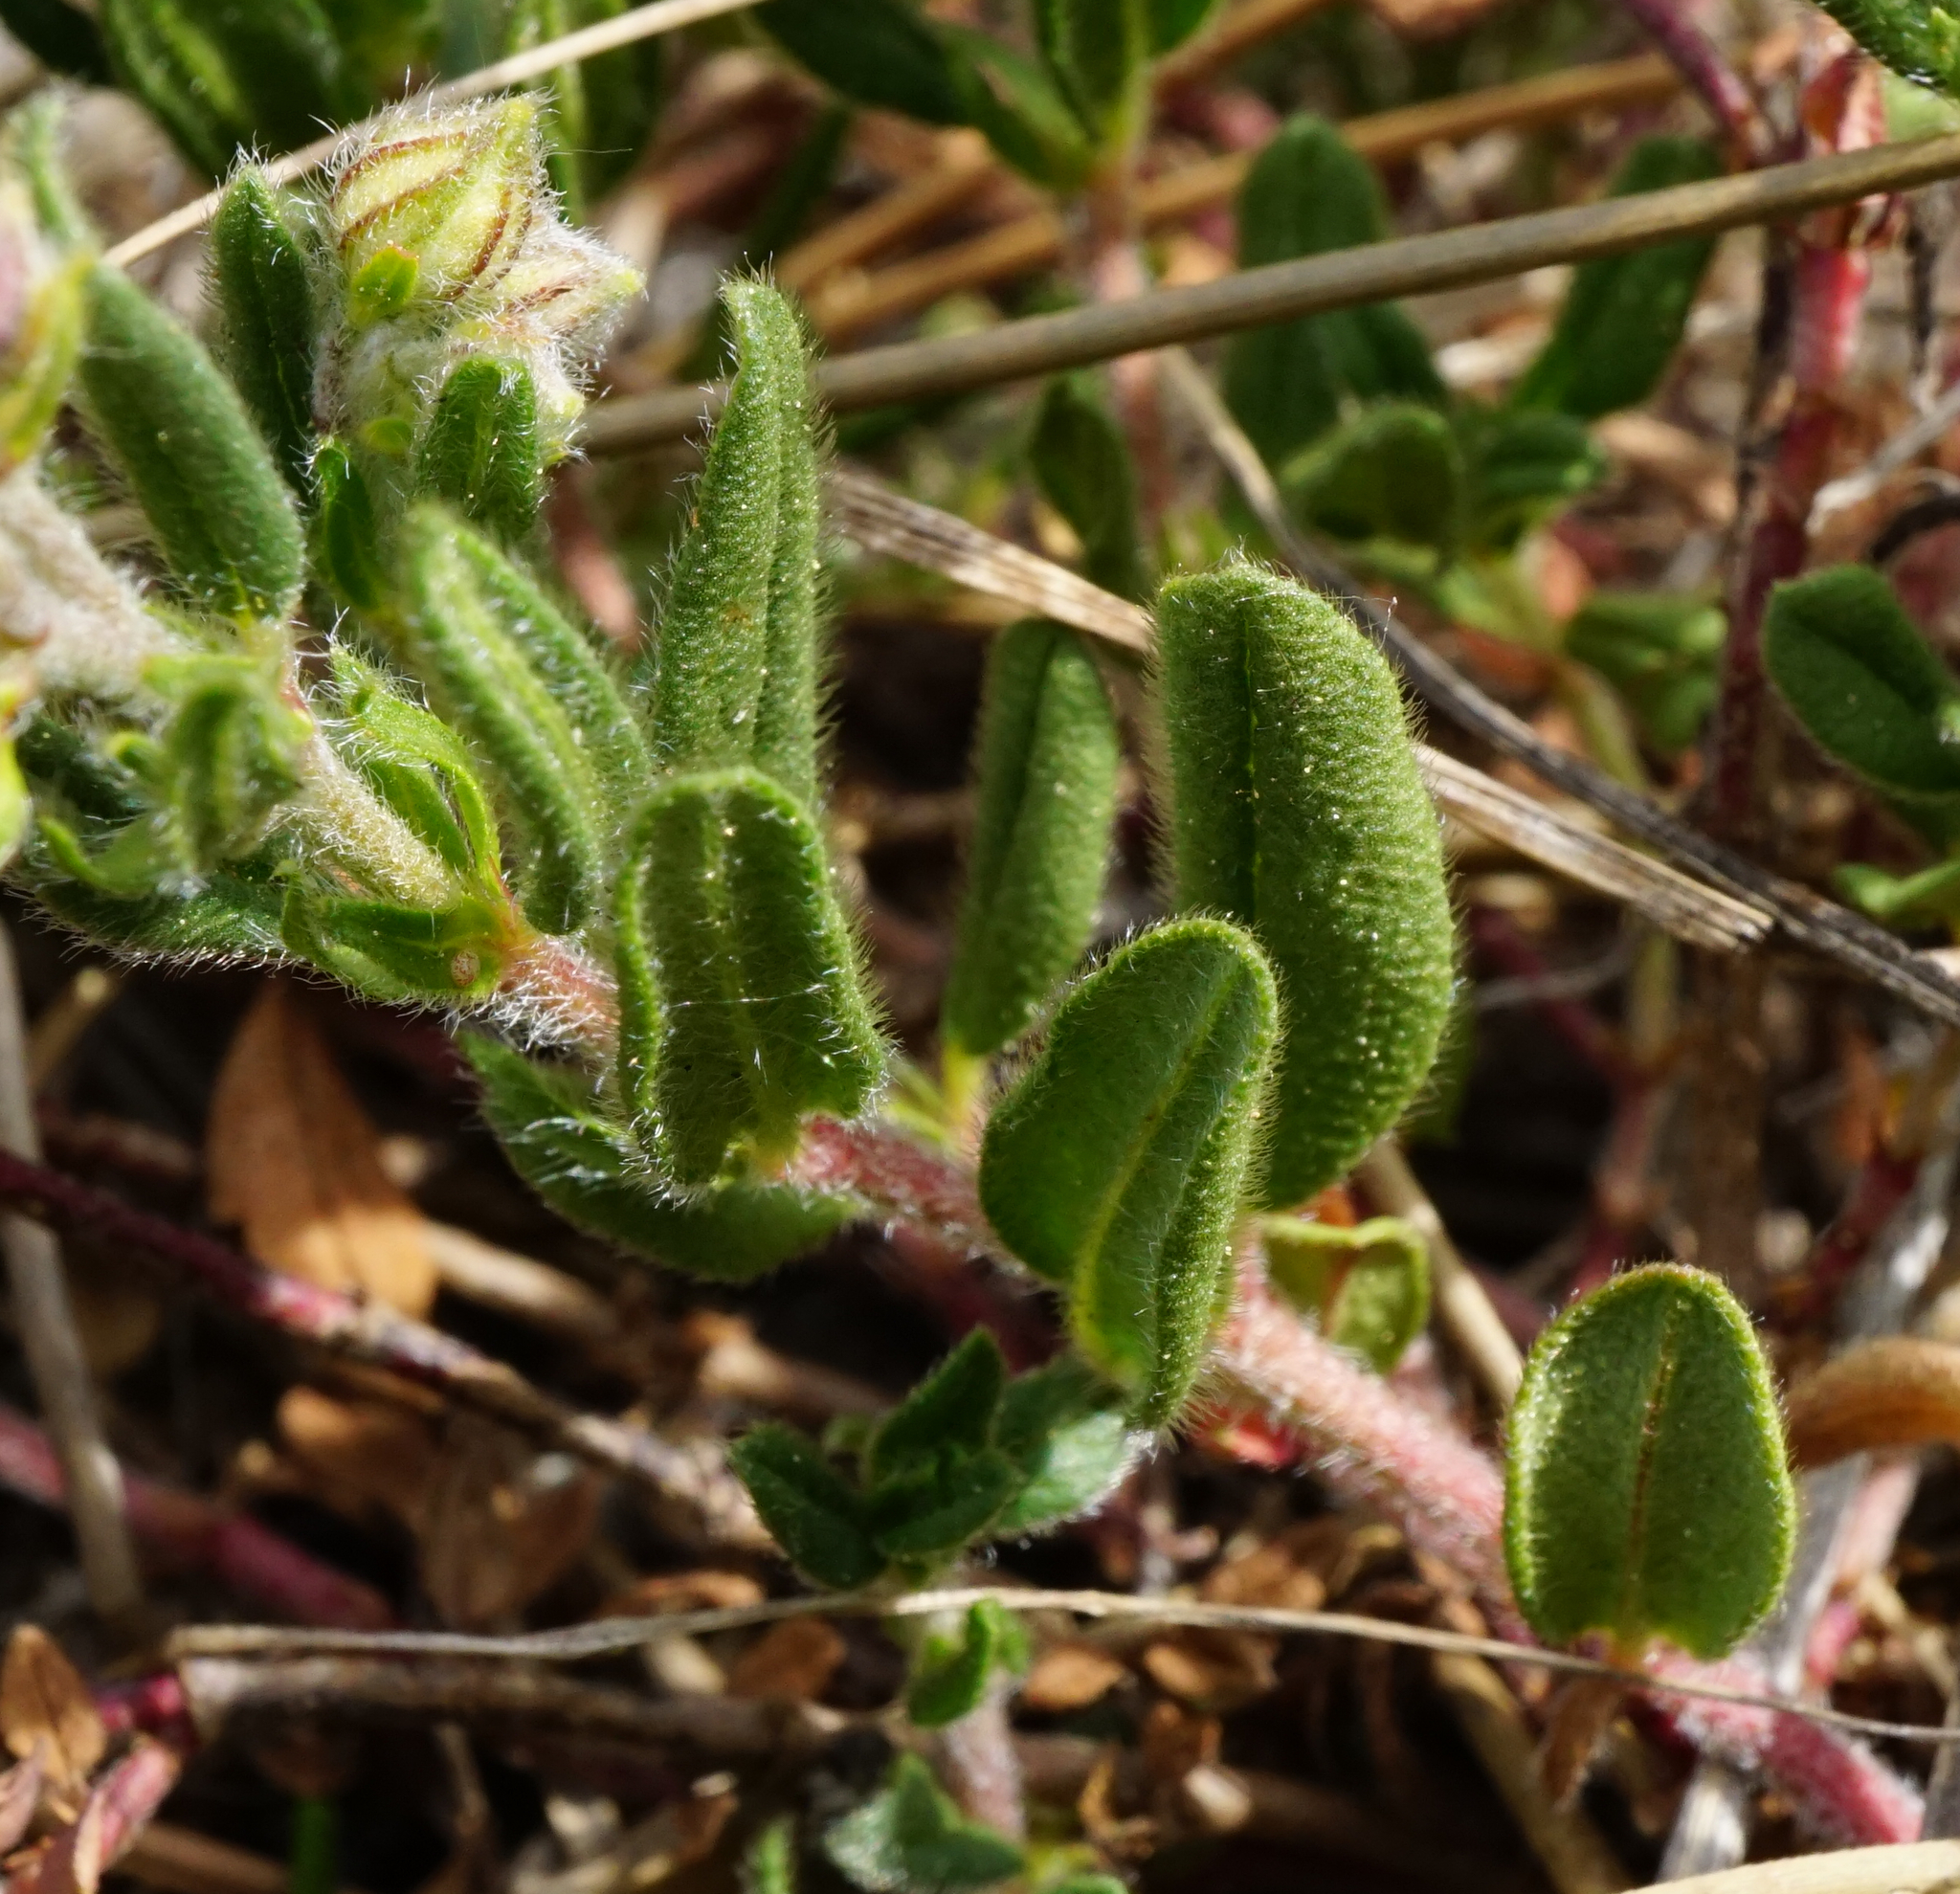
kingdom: Plantae
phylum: Tracheophyta
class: Magnoliopsida
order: Malvales
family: Cistaceae
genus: Helianthemum
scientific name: Helianthemum nummularium
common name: Common rock-rose
